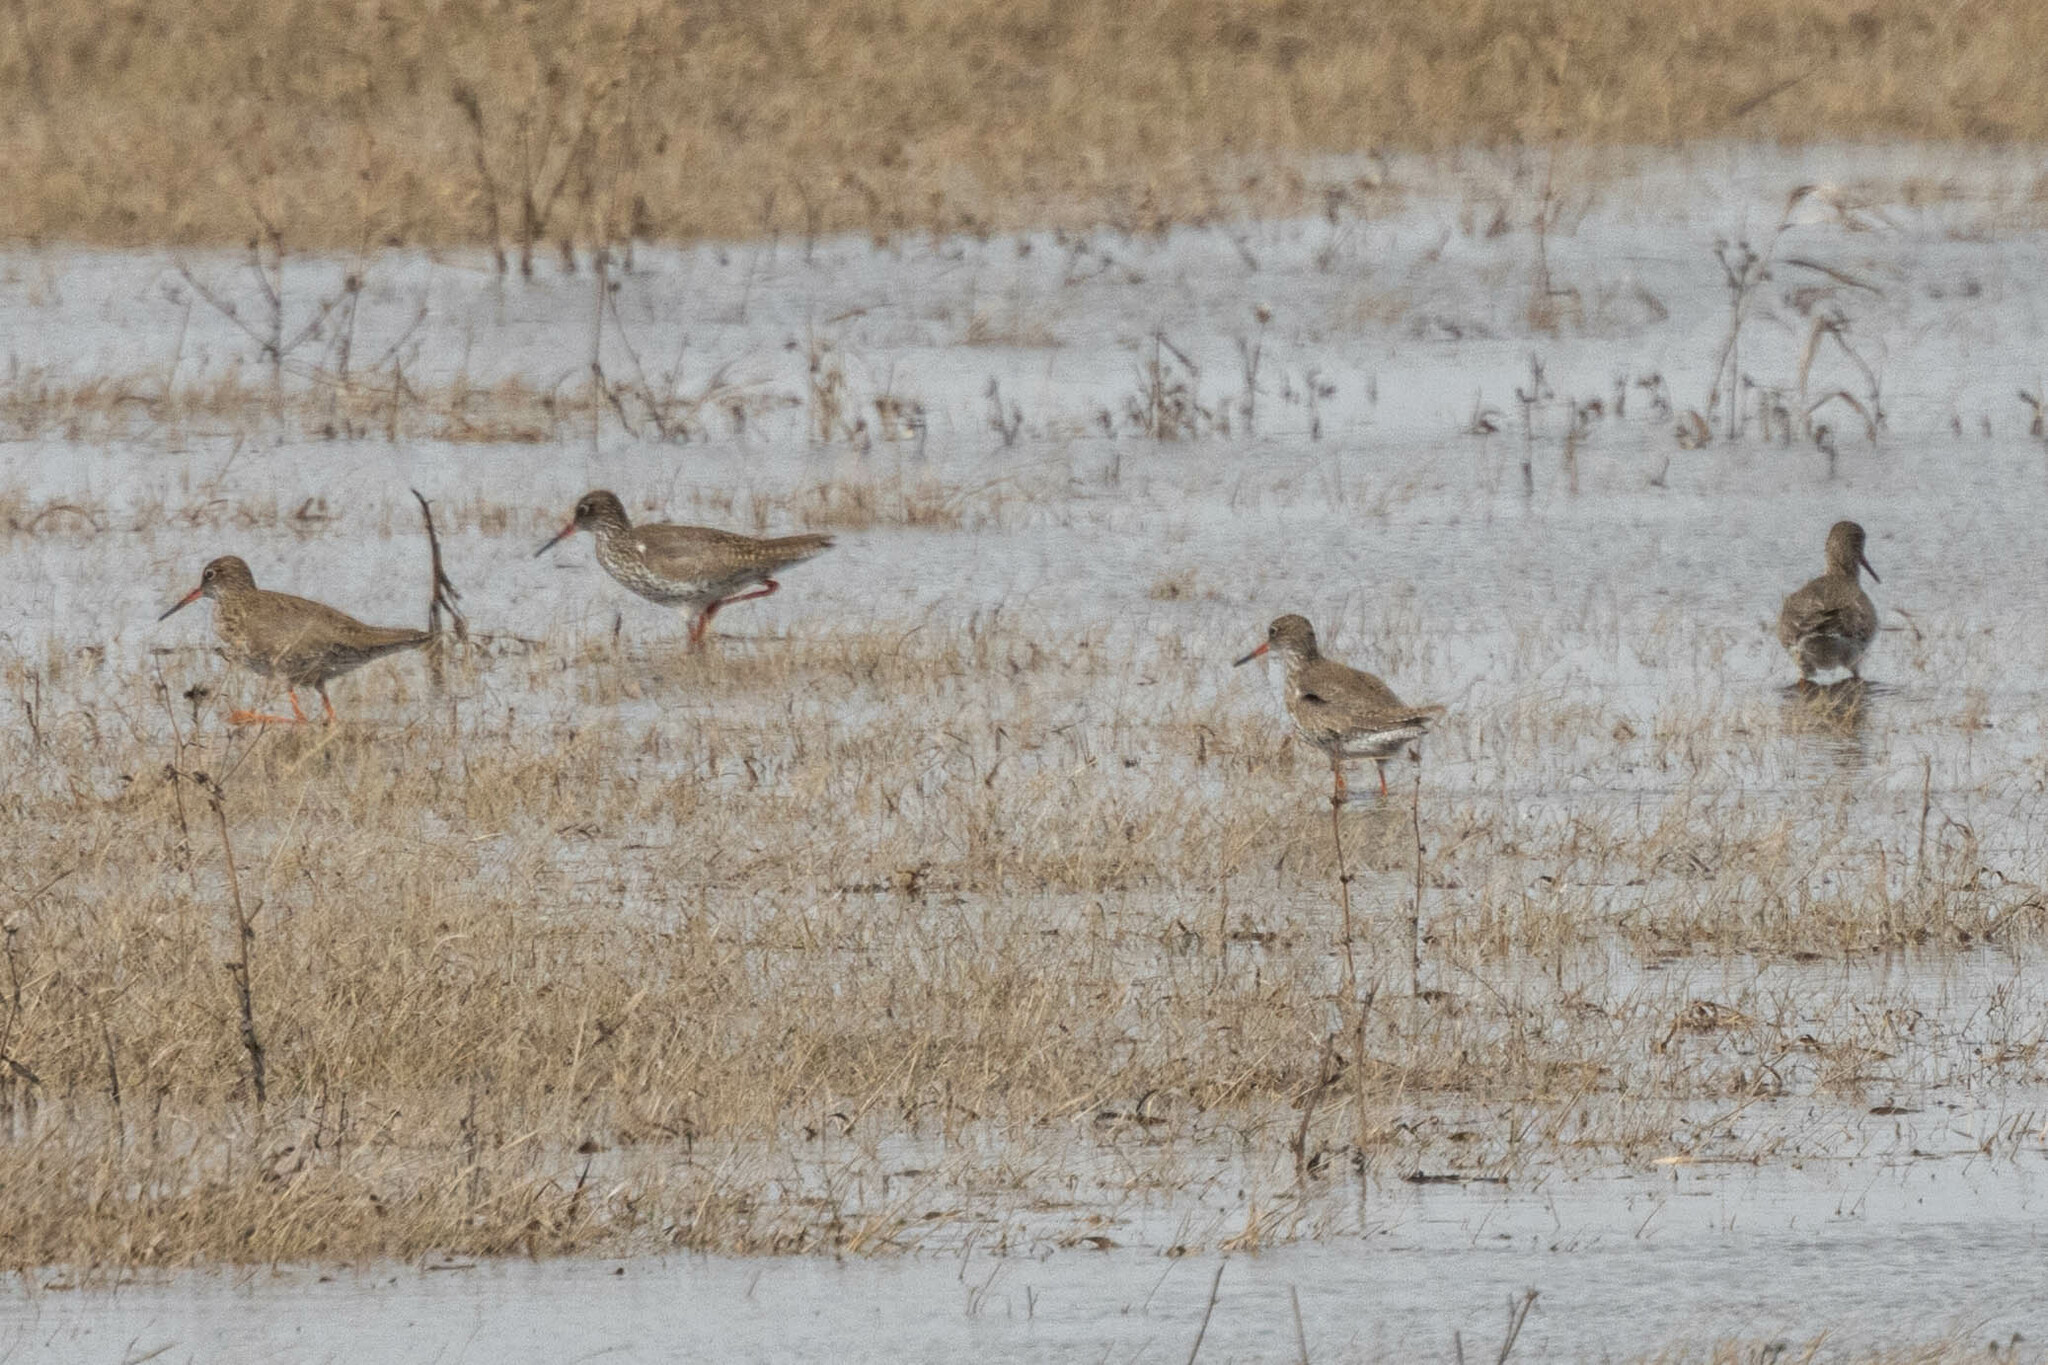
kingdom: Animalia
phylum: Chordata
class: Aves
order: Charadriiformes
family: Scolopacidae
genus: Tringa
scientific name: Tringa totanus
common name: Common redshank
